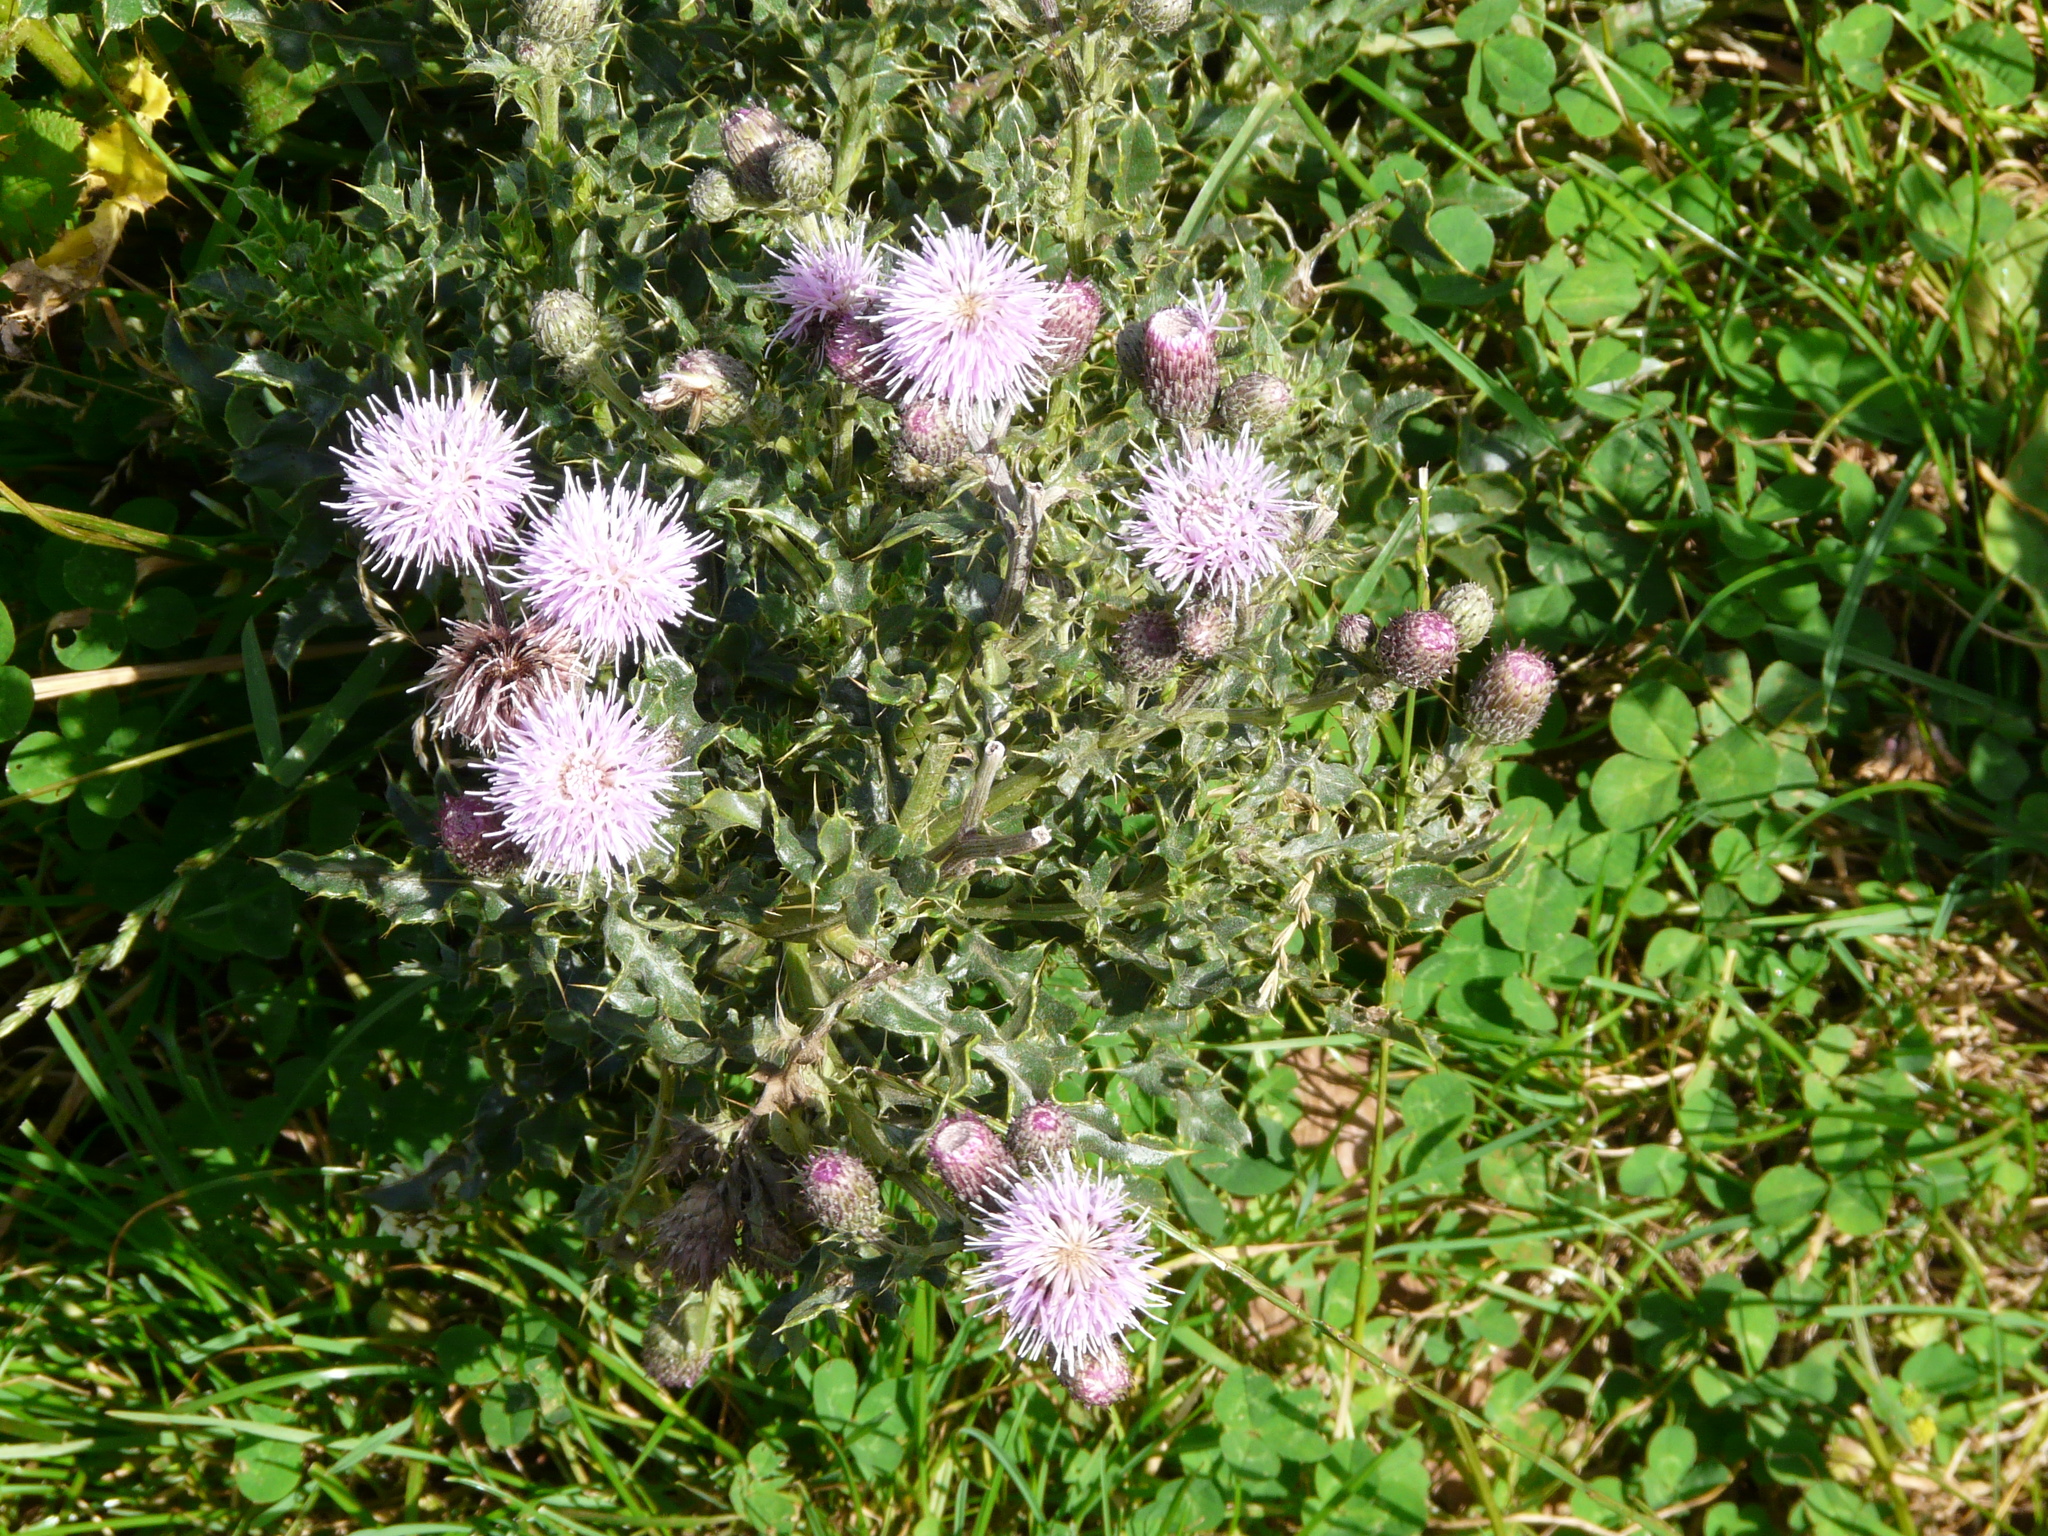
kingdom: Plantae
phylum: Tracheophyta
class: Magnoliopsida
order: Asterales
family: Asteraceae
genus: Cirsium
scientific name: Cirsium arvense
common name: Creeping thistle
